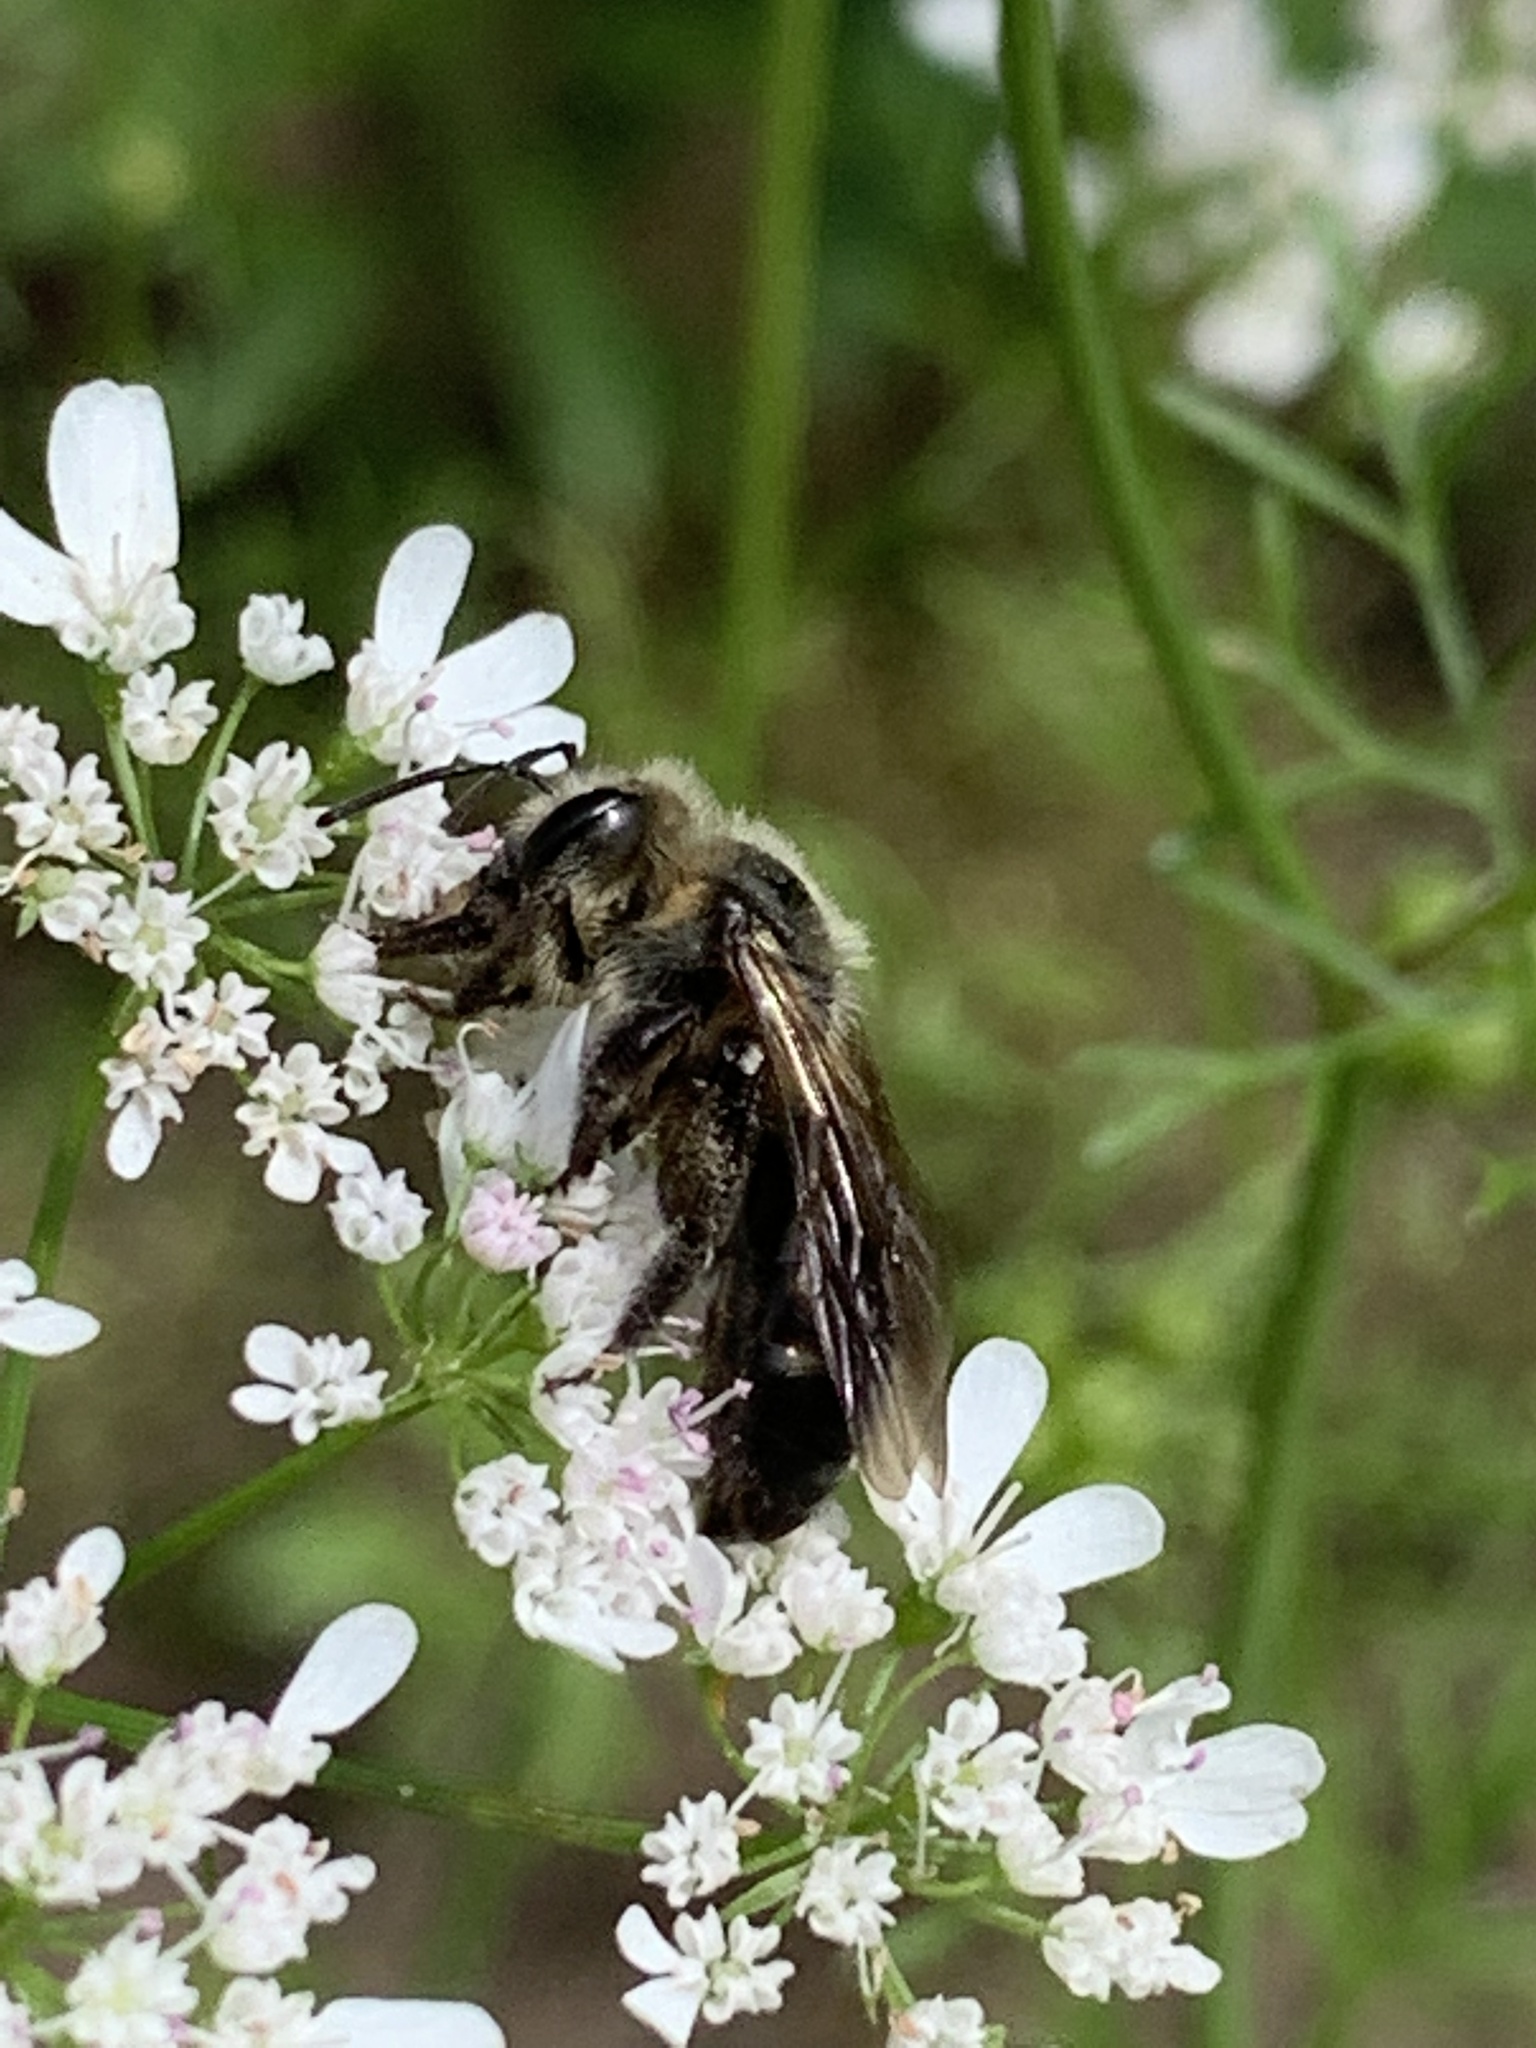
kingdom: Animalia
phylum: Arthropoda
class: Insecta
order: Hymenoptera
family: Andrenidae
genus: Andrena
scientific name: Andrena vicina
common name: Neighborly mining bee
